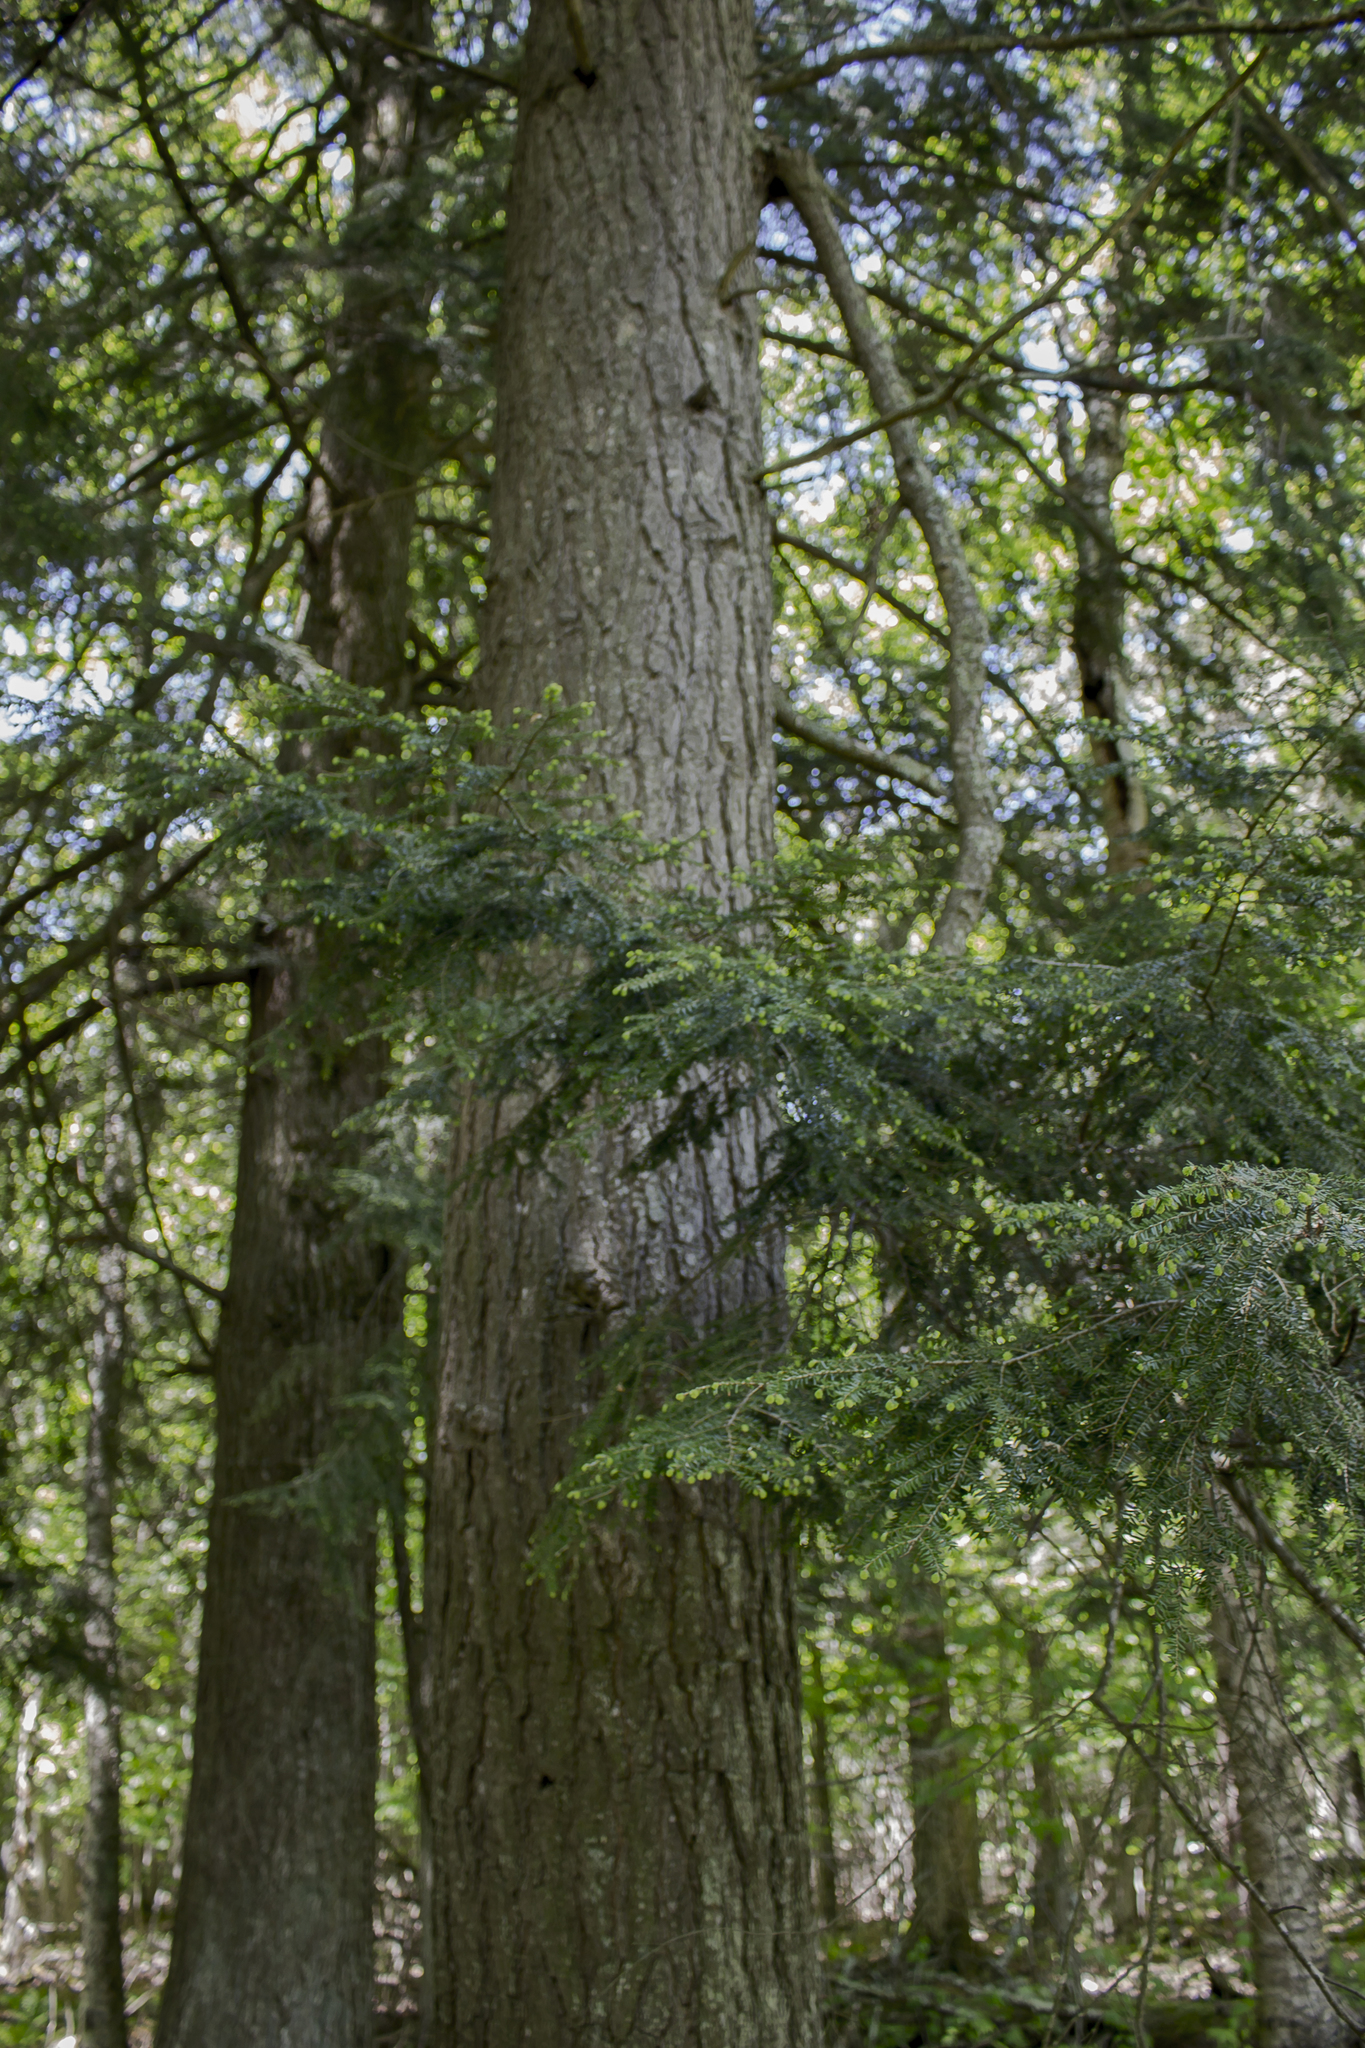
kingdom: Plantae
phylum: Tracheophyta
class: Pinopsida
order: Pinales
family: Pinaceae
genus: Tsuga
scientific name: Tsuga canadensis
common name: Eastern hemlock
